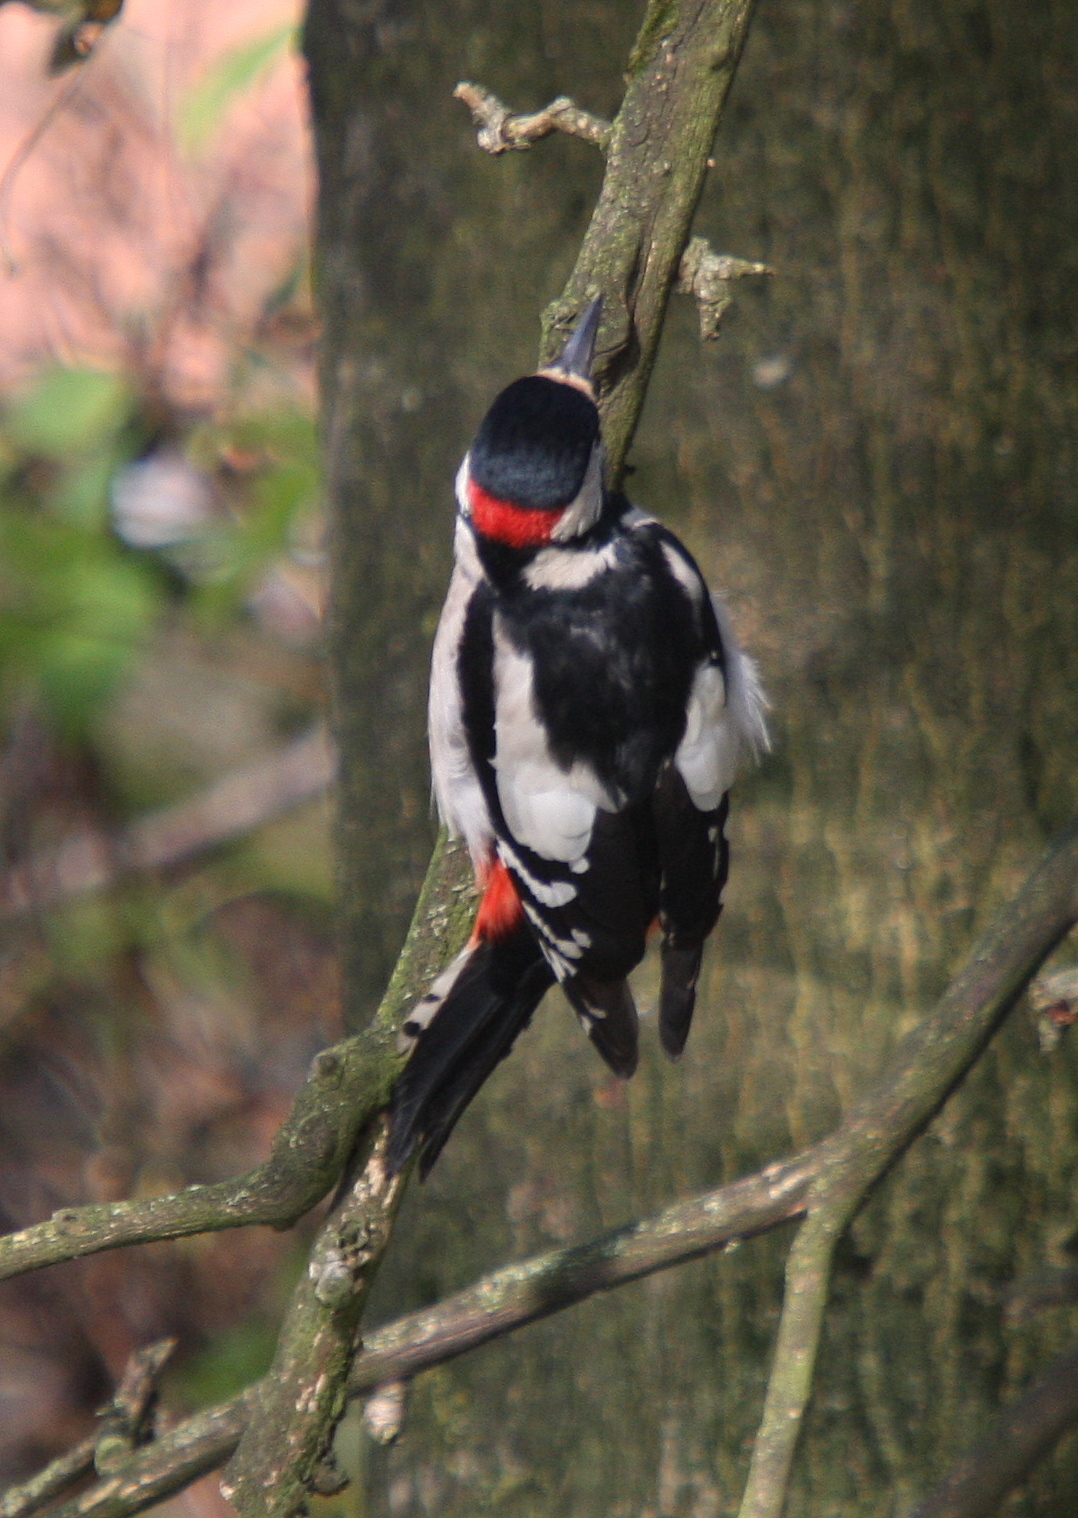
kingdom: Animalia
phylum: Chordata
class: Aves
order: Piciformes
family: Picidae
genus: Dendrocopos
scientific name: Dendrocopos major
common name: Great spotted woodpecker
